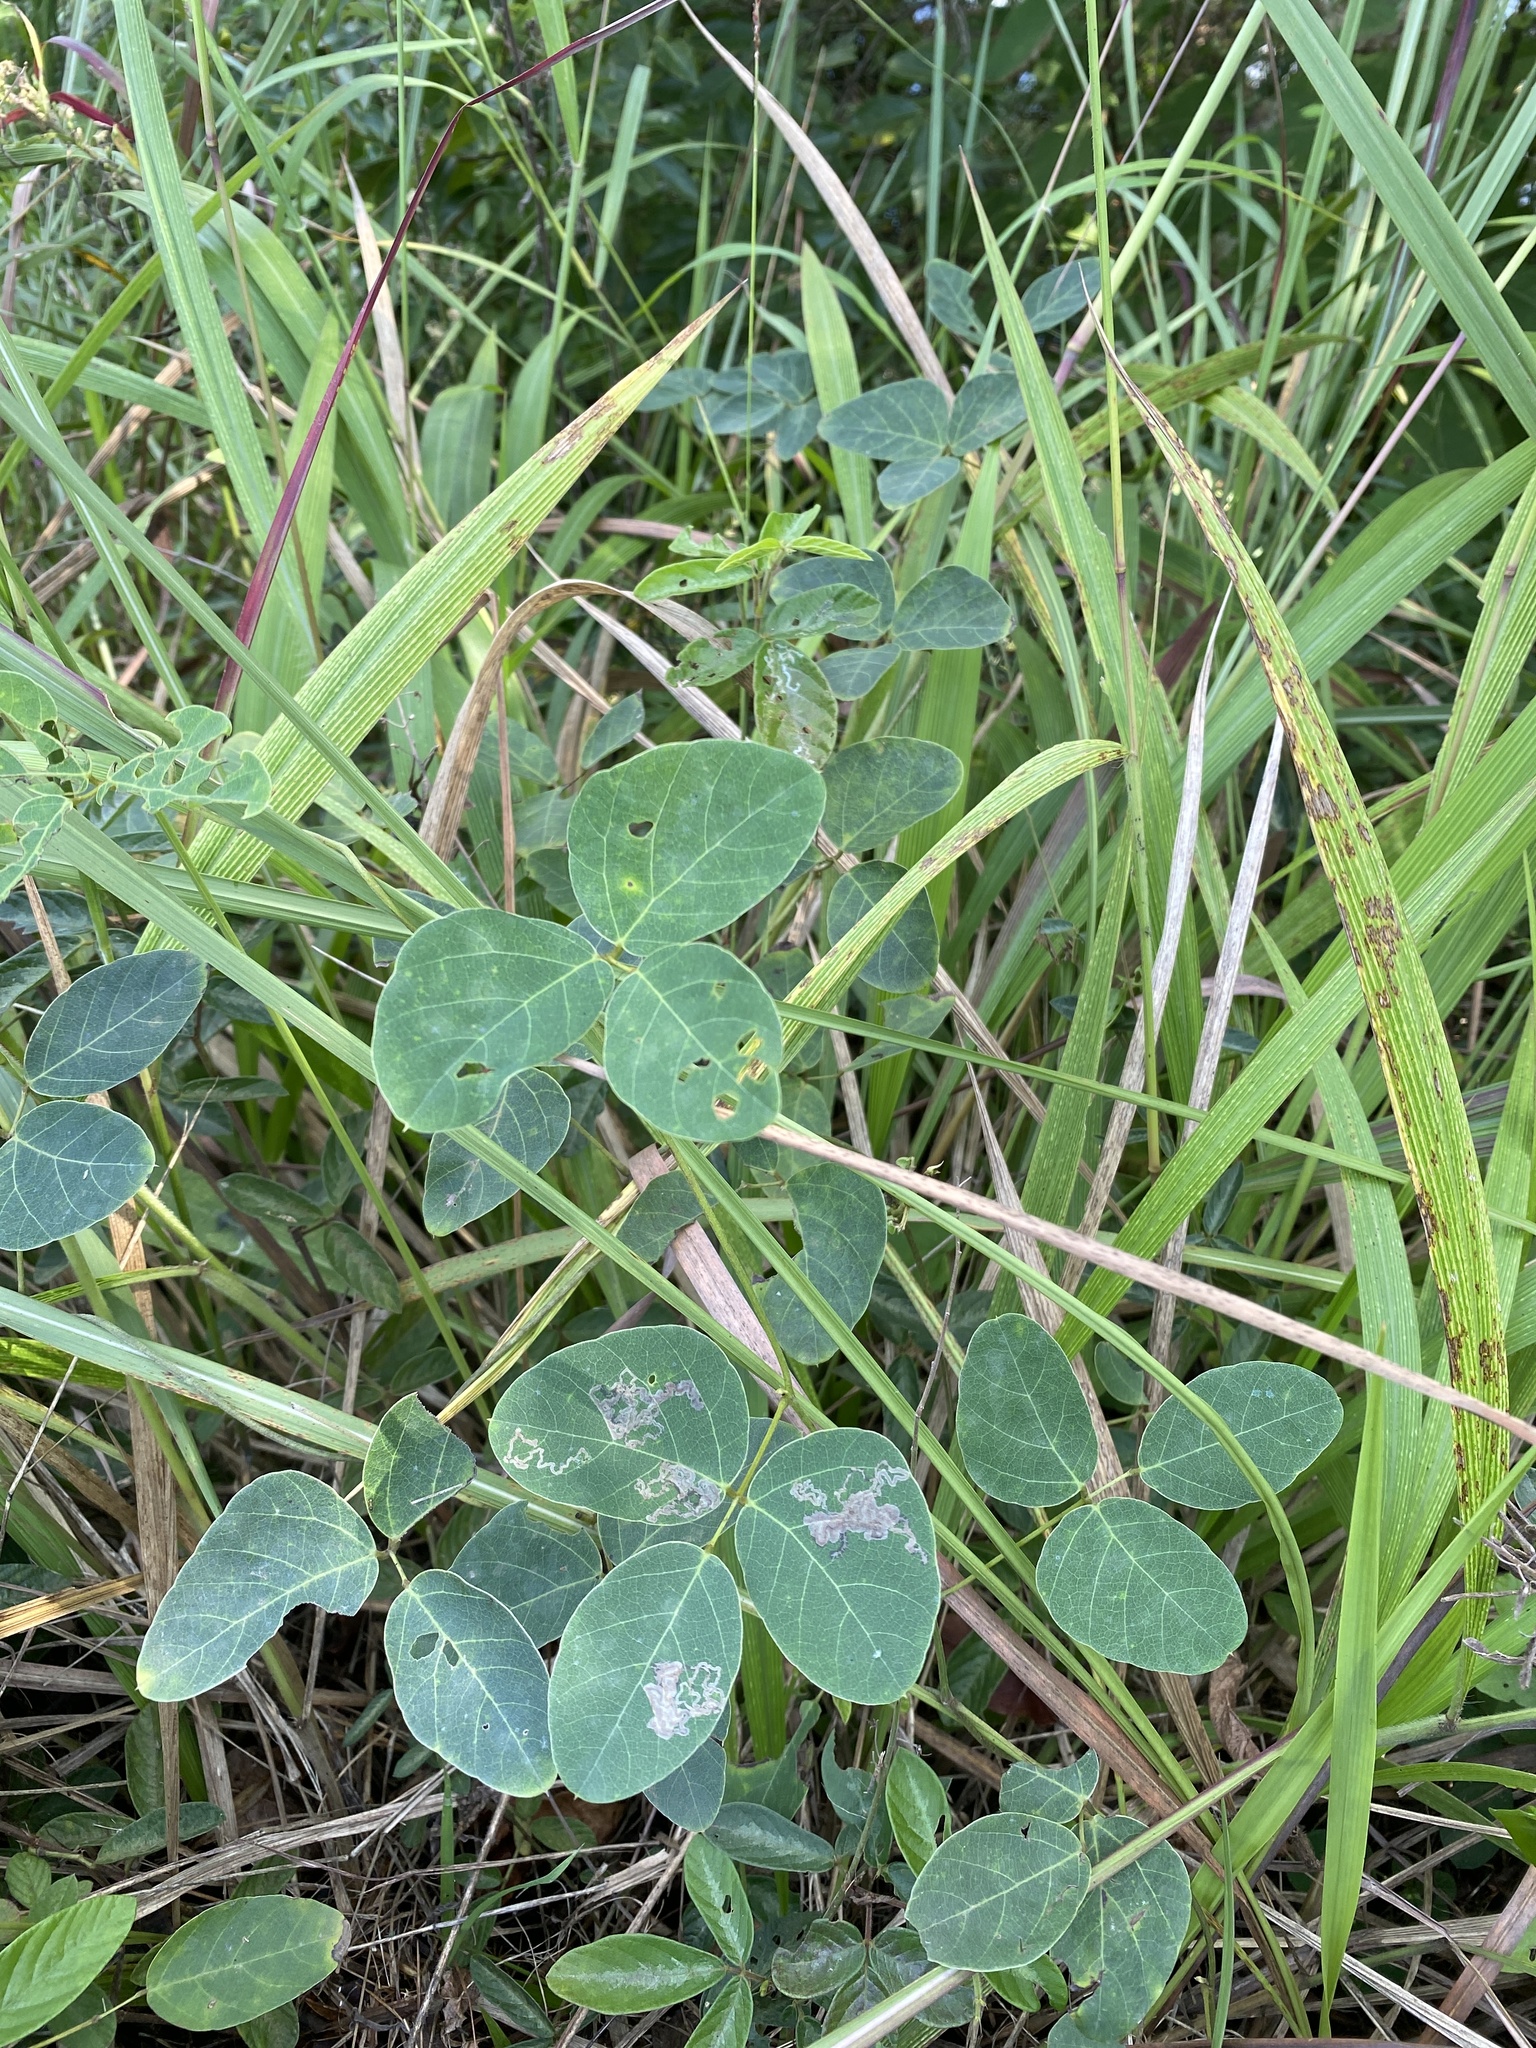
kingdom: Plantae
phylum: Tracheophyta
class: Magnoliopsida
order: Fabales
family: Fabaceae
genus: Mucuna
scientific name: Mucuna coriacea
